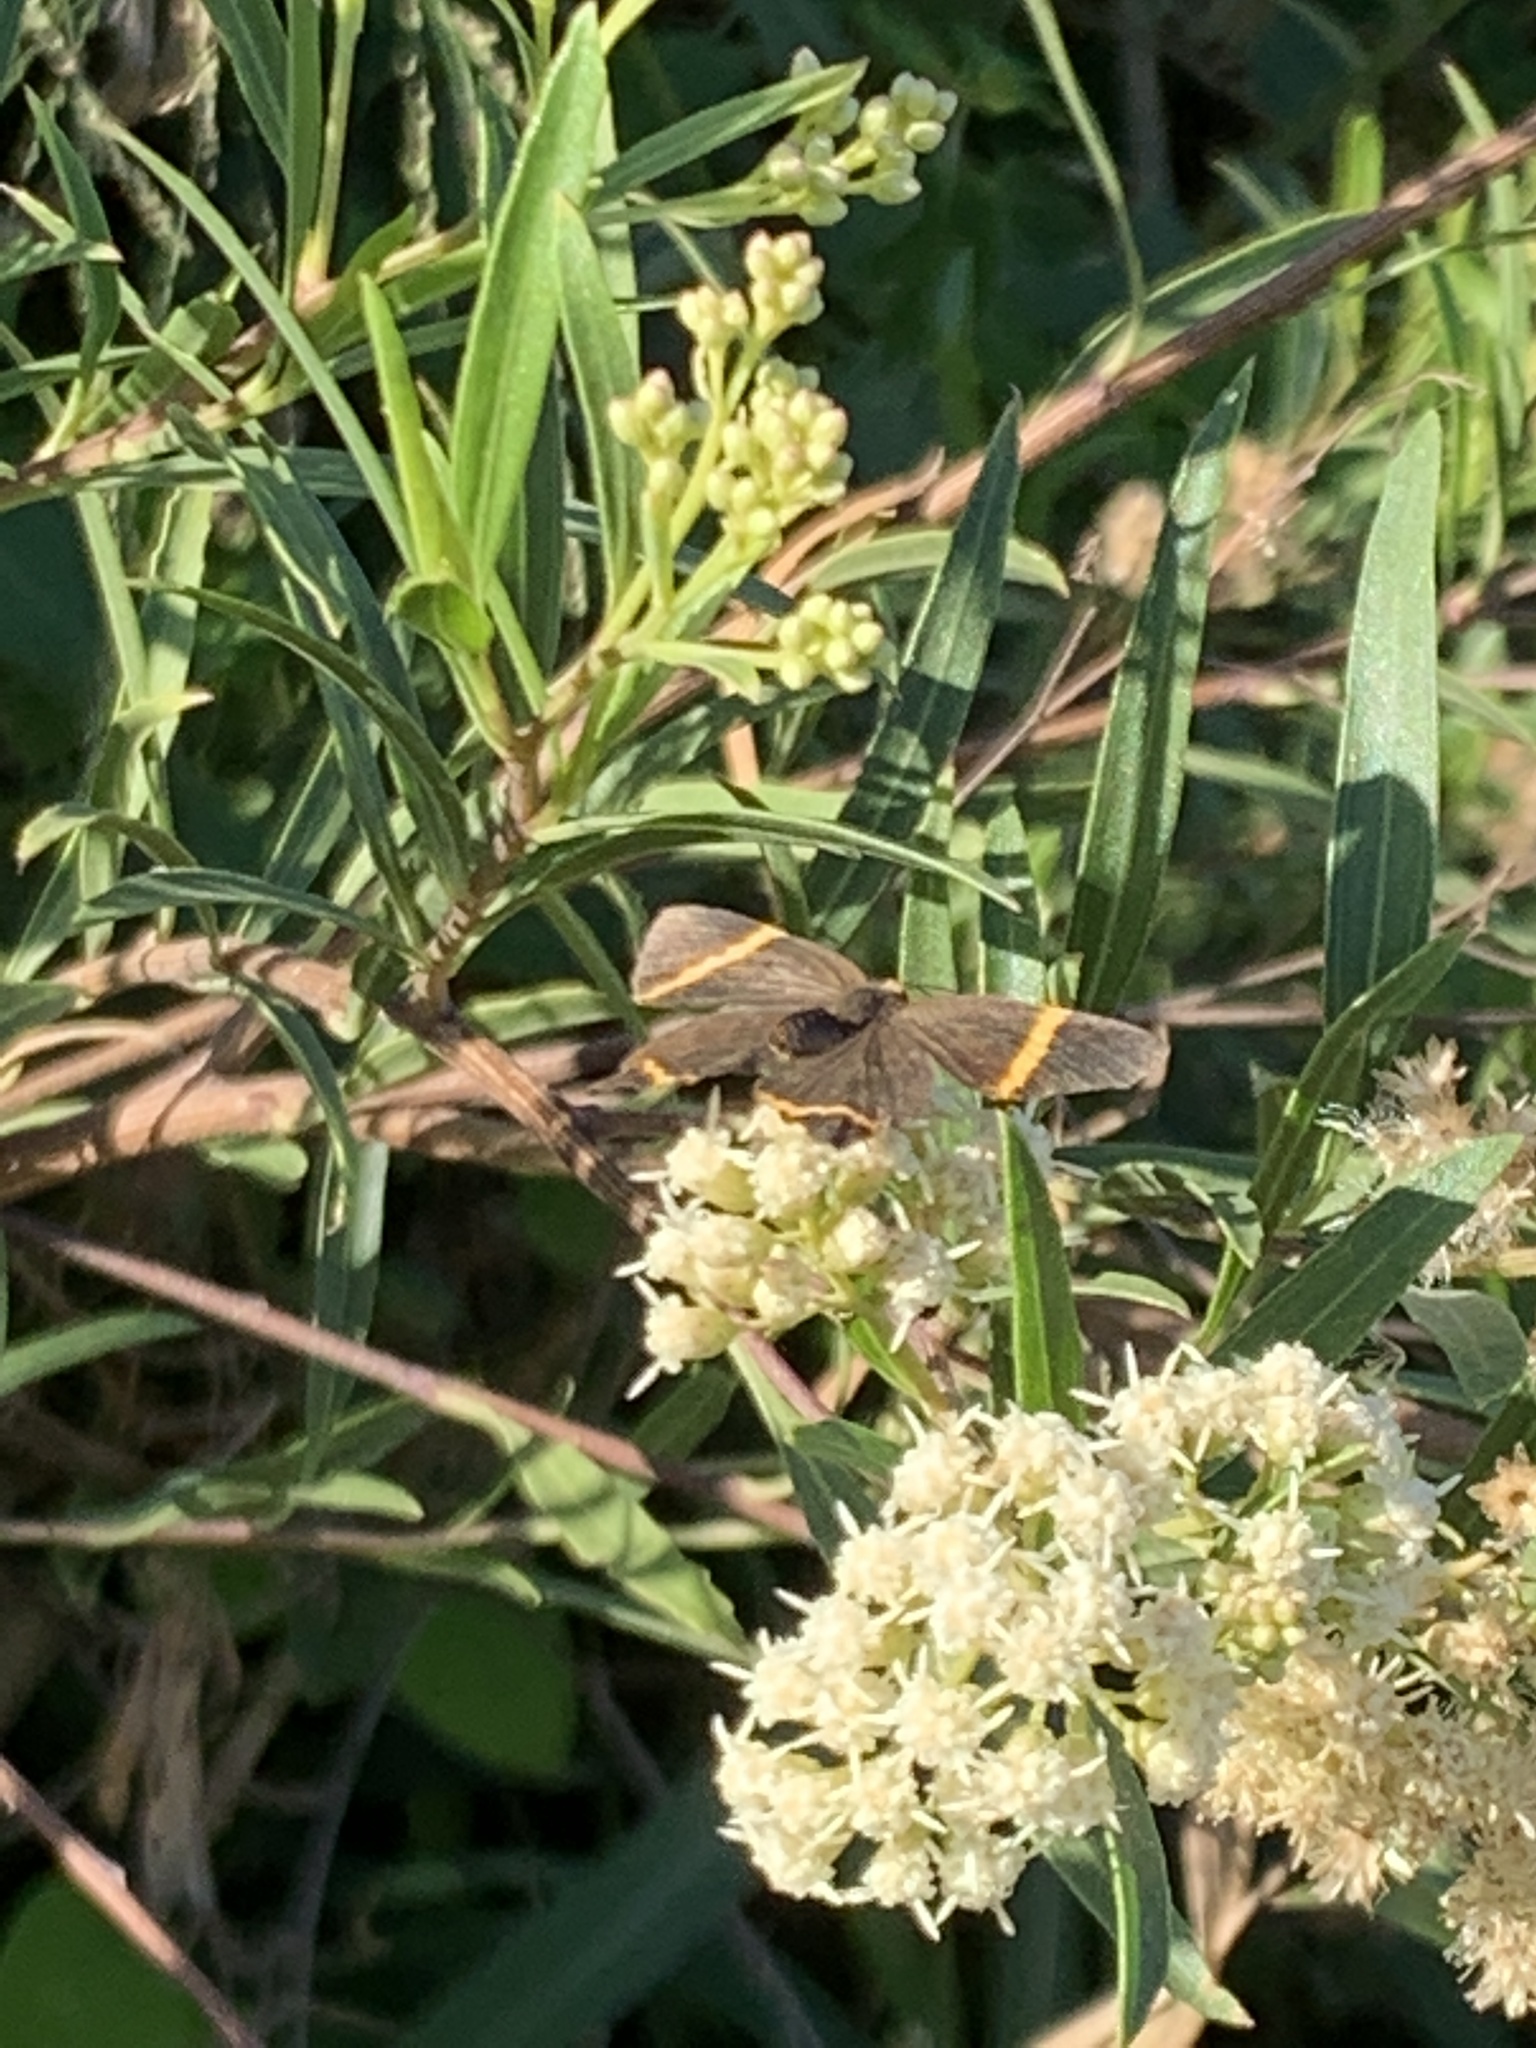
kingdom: Animalia
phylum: Arthropoda
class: Insecta
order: Lepidoptera
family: Riodinidae
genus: Riodina
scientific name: Riodina lysippoides
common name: Little dancer metalmark
